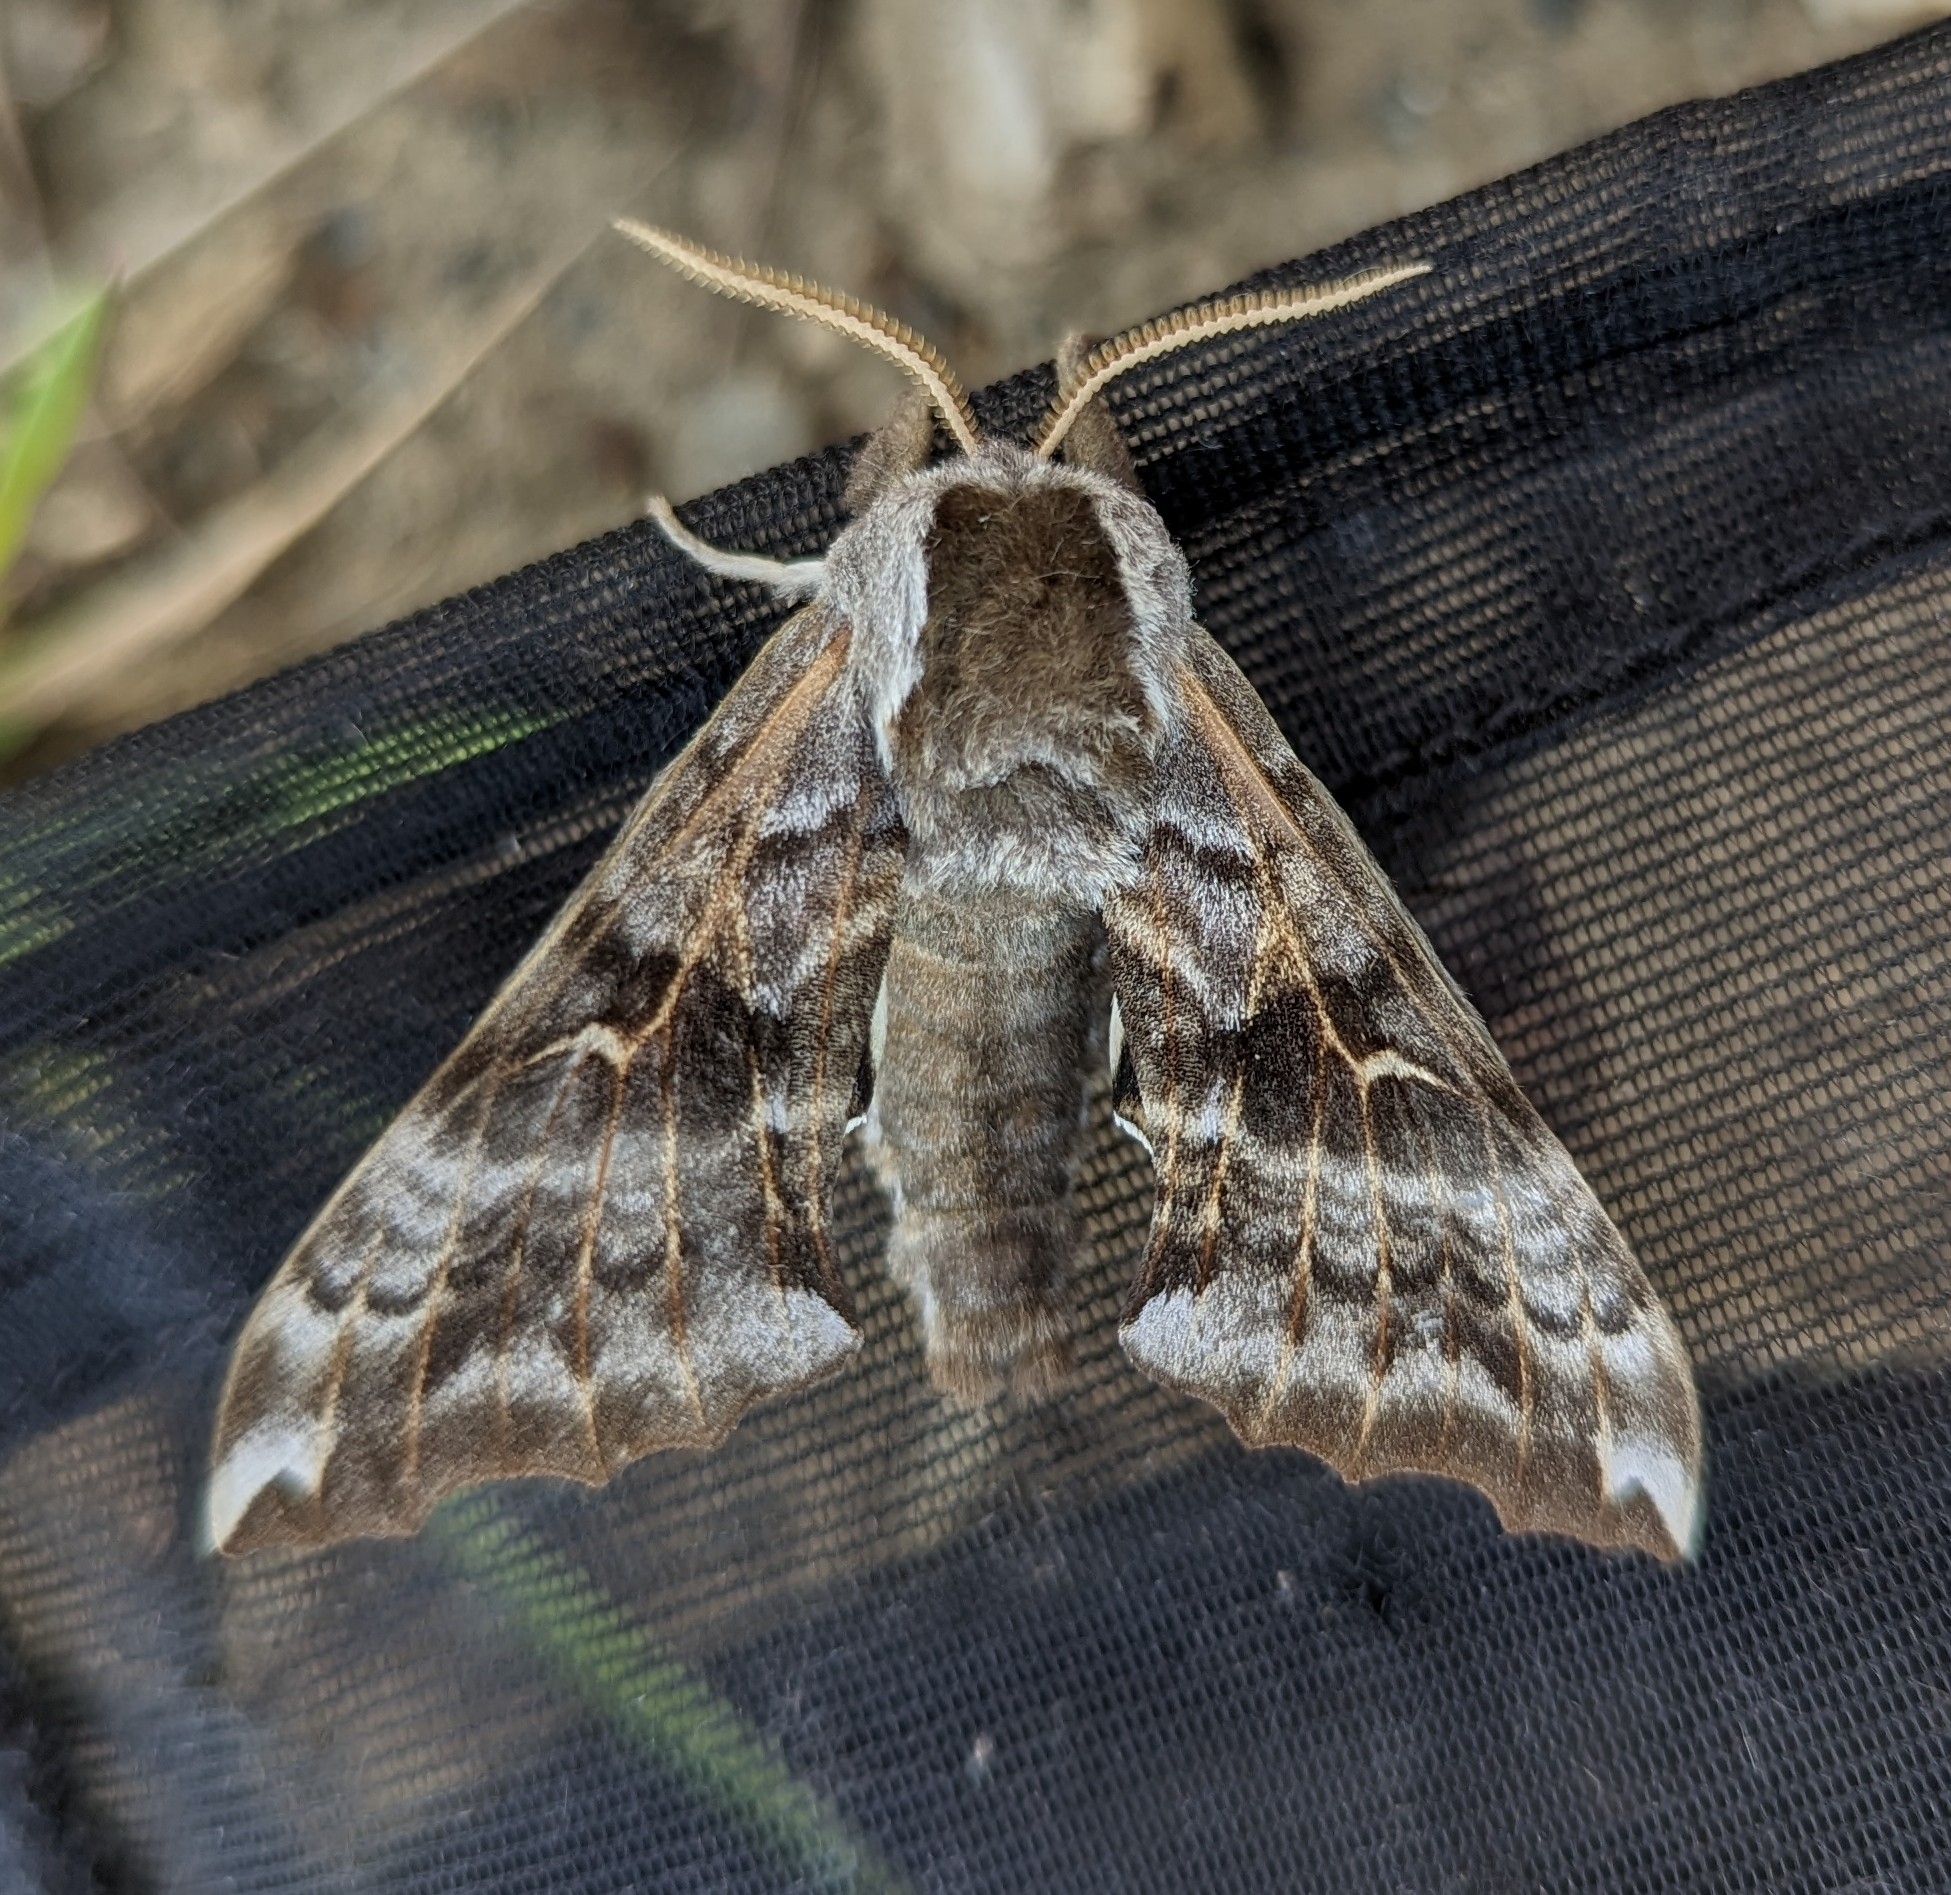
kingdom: Animalia
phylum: Arthropoda
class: Insecta
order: Lepidoptera
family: Sphingidae
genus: Smerinthus
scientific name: Smerinthus cerisyi
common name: Cerisy's sphinx moth
